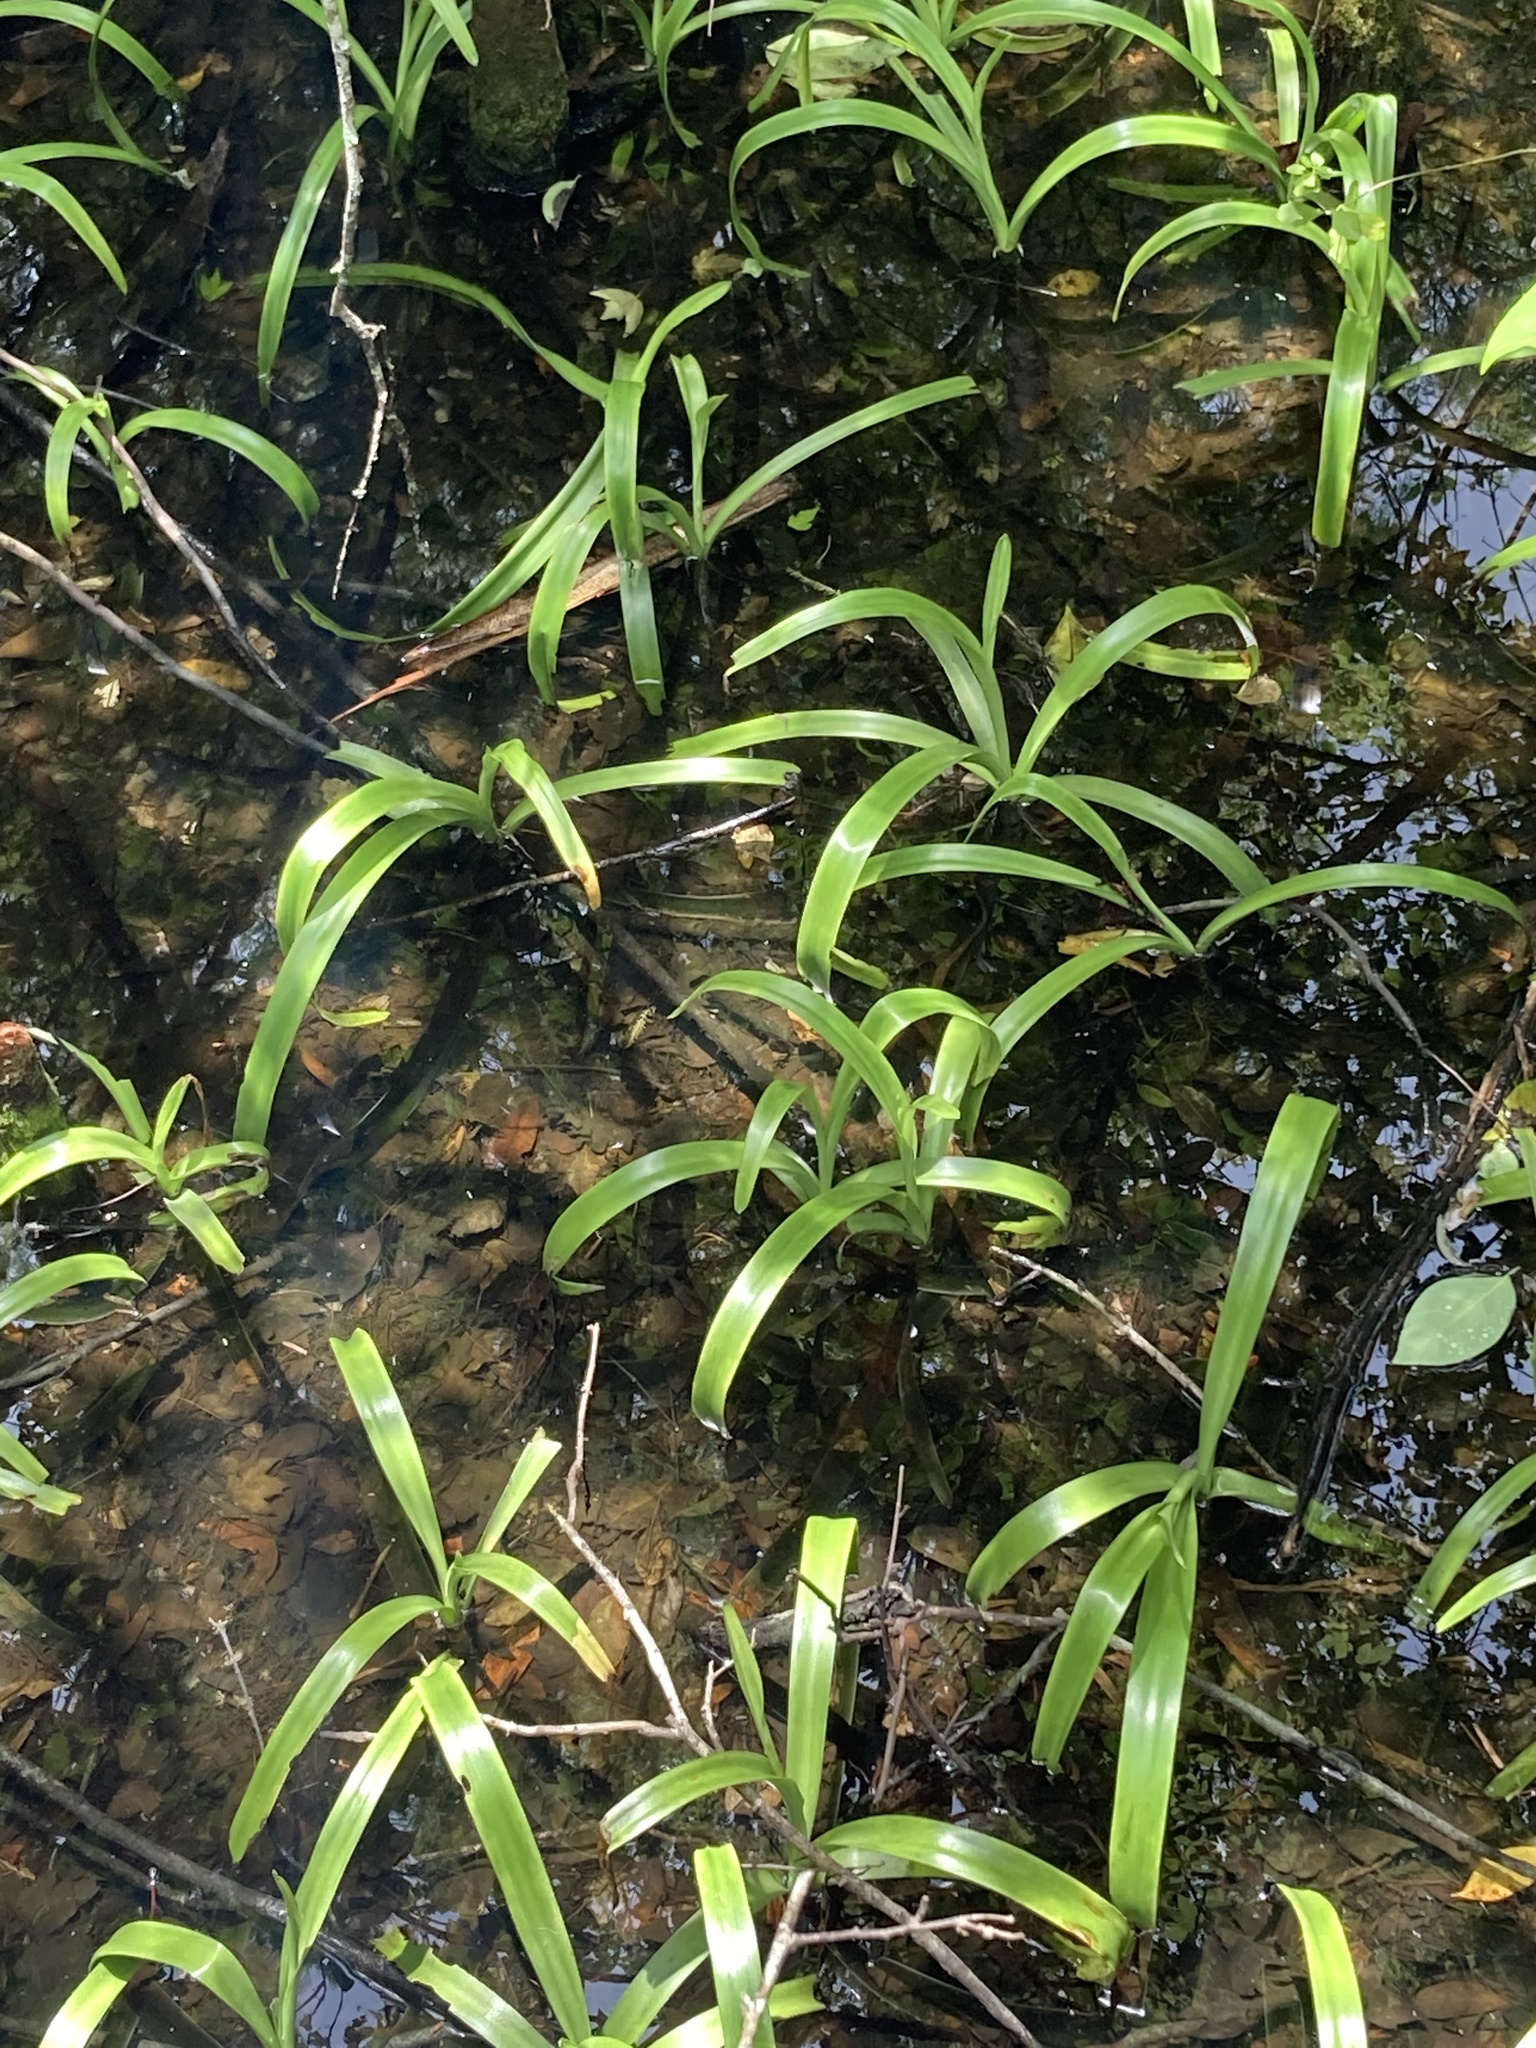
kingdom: Plantae
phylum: Tracheophyta
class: Liliopsida
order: Asparagales
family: Amaryllidaceae
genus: Crinum
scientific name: Crinum americanum
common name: Florida swamp-lily
